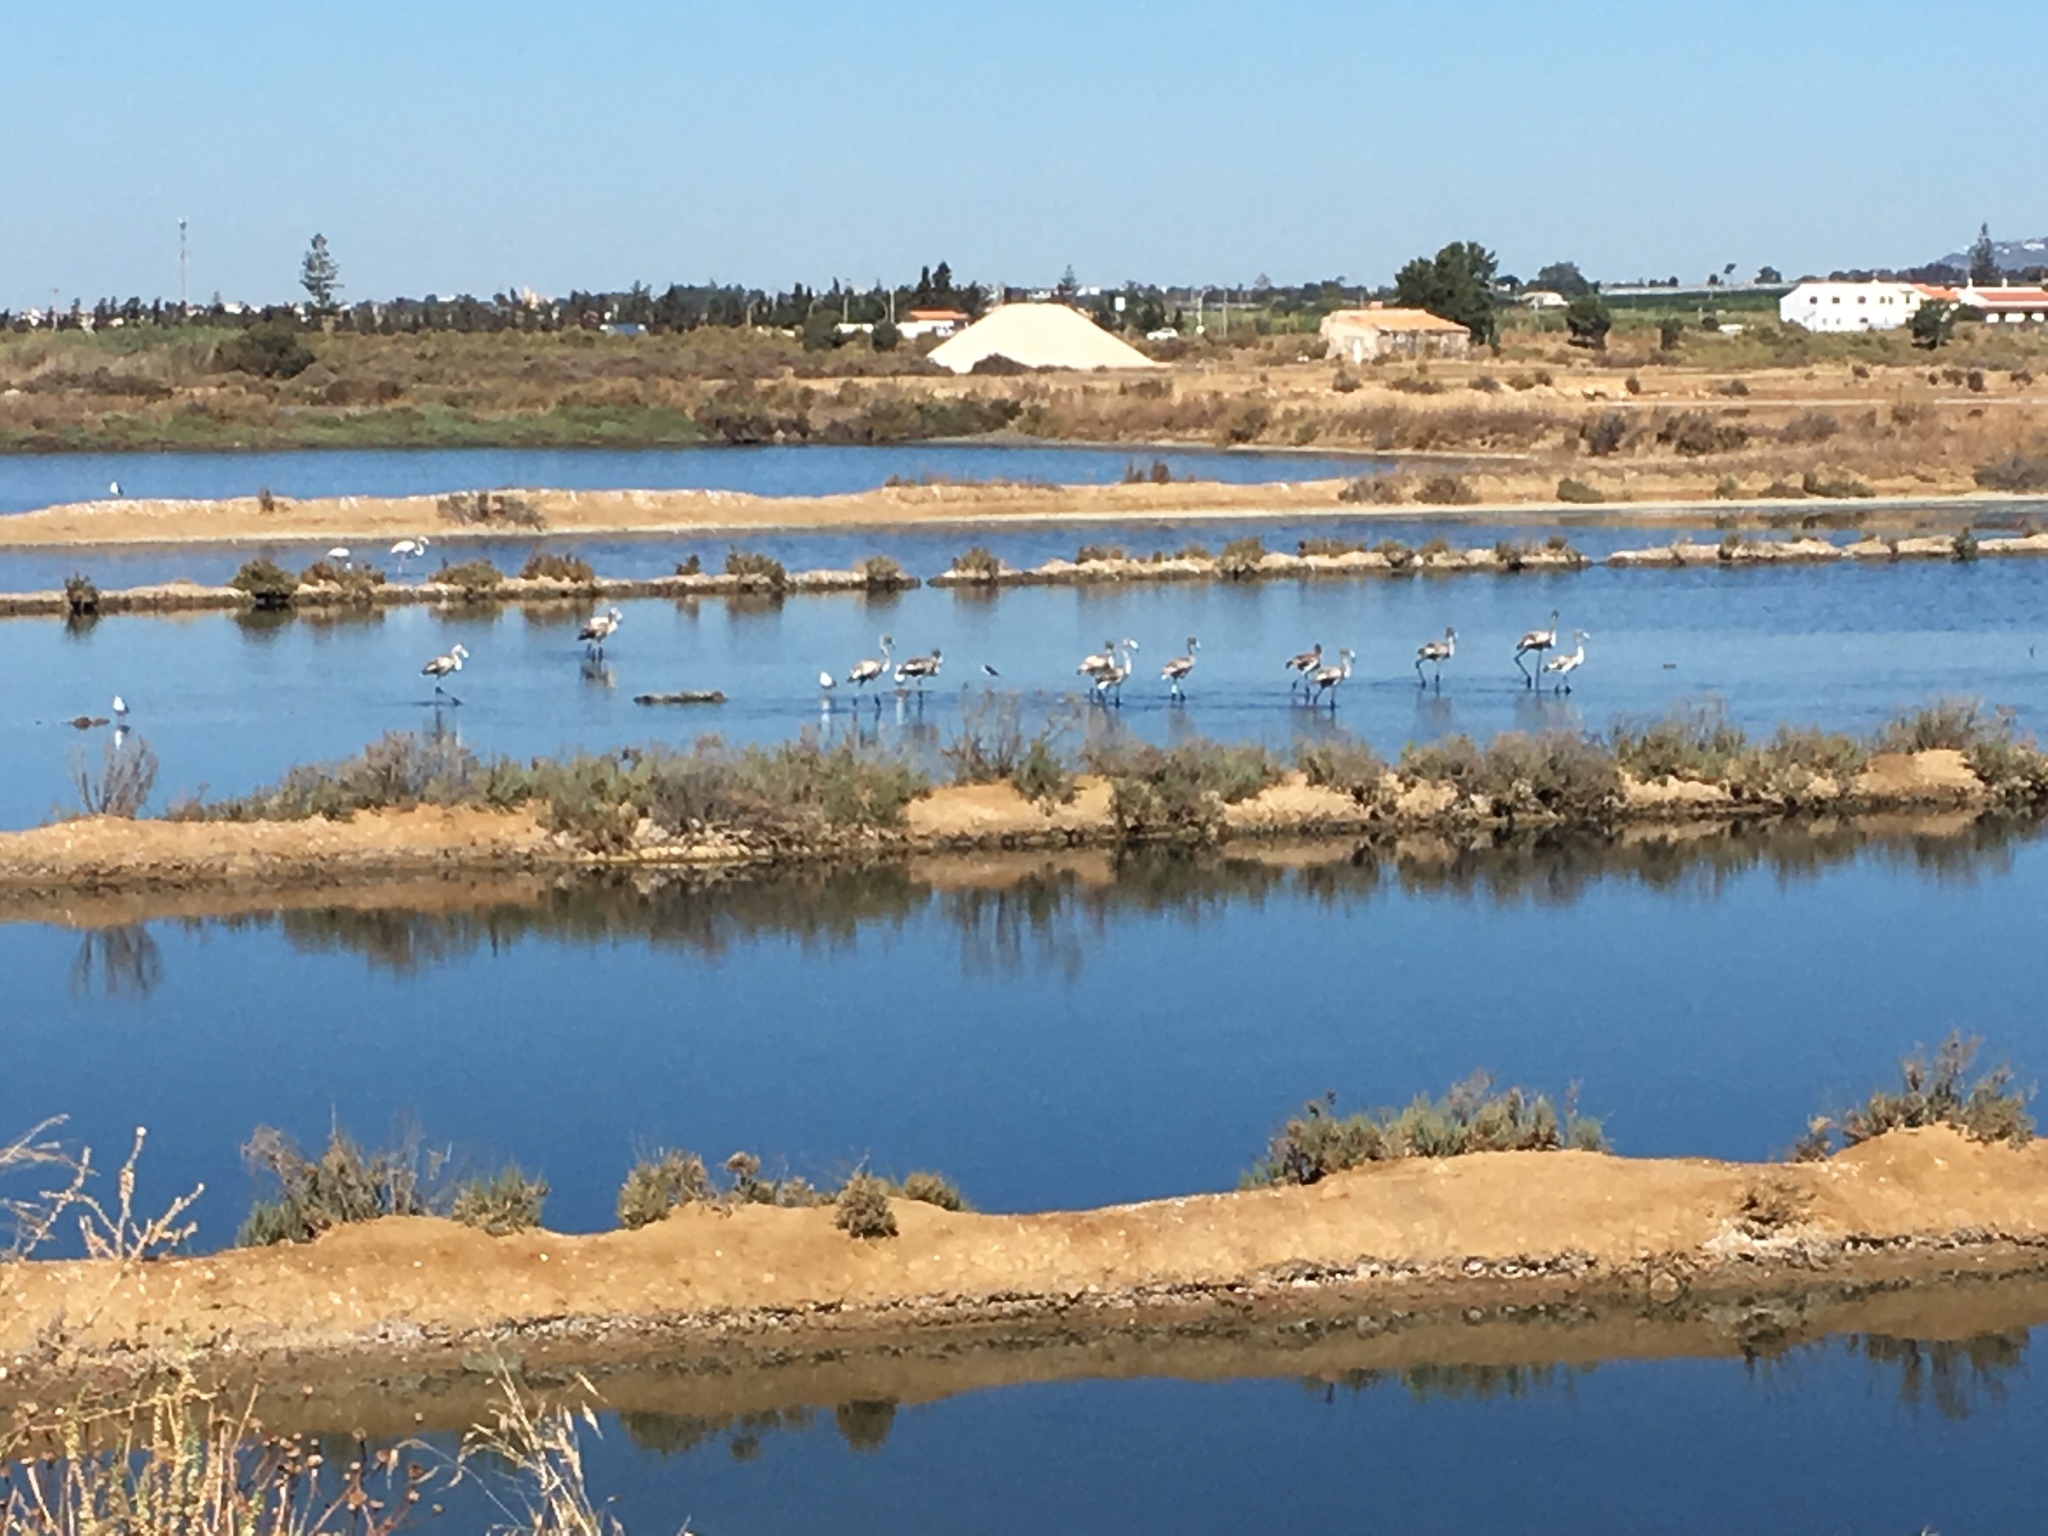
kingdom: Animalia
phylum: Chordata
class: Aves
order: Phoenicopteriformes
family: Phoenicopteridae
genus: Phoenicopterus
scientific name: Phoenicopterus roseus
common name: Greater flamingo
